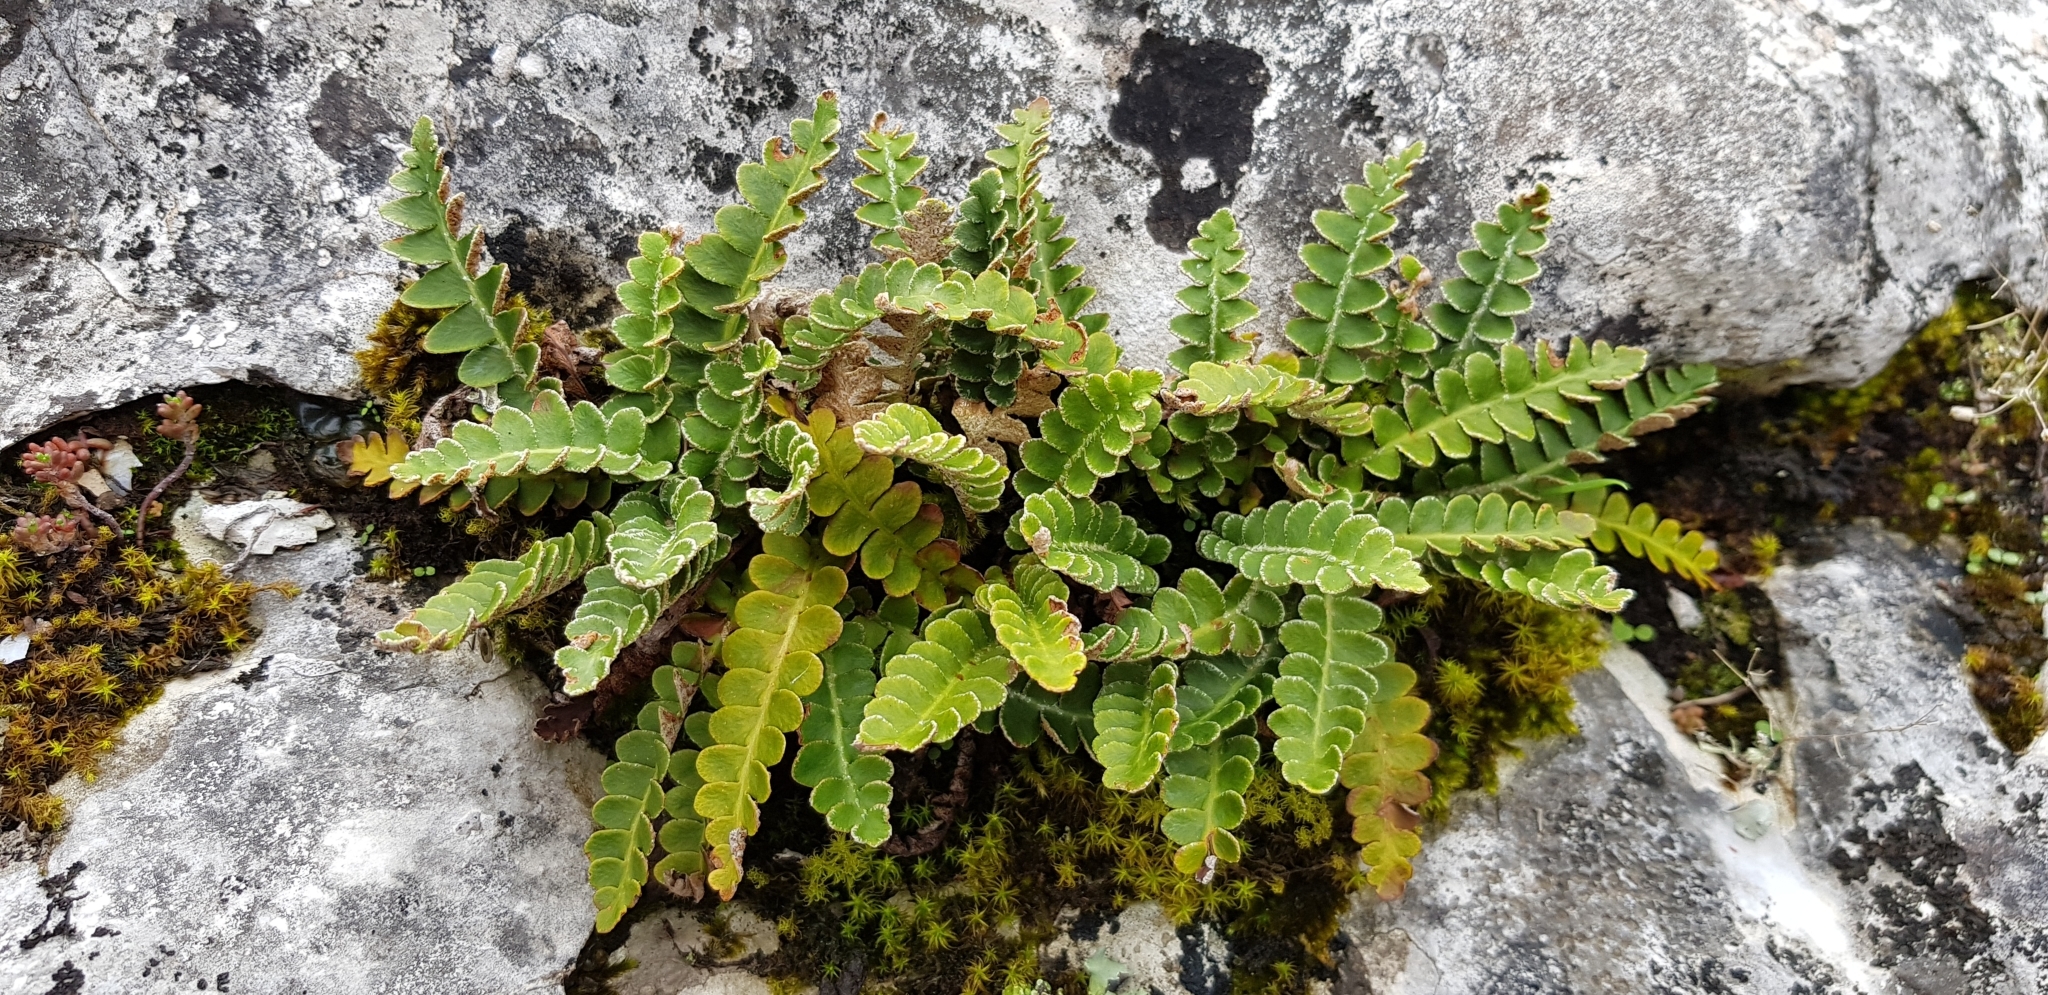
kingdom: Plantae
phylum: Tracheophyta
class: Polypodiopsida
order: Polypodiales
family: Aspleniaceae
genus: Asplenium
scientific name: Asplenium ceterach
